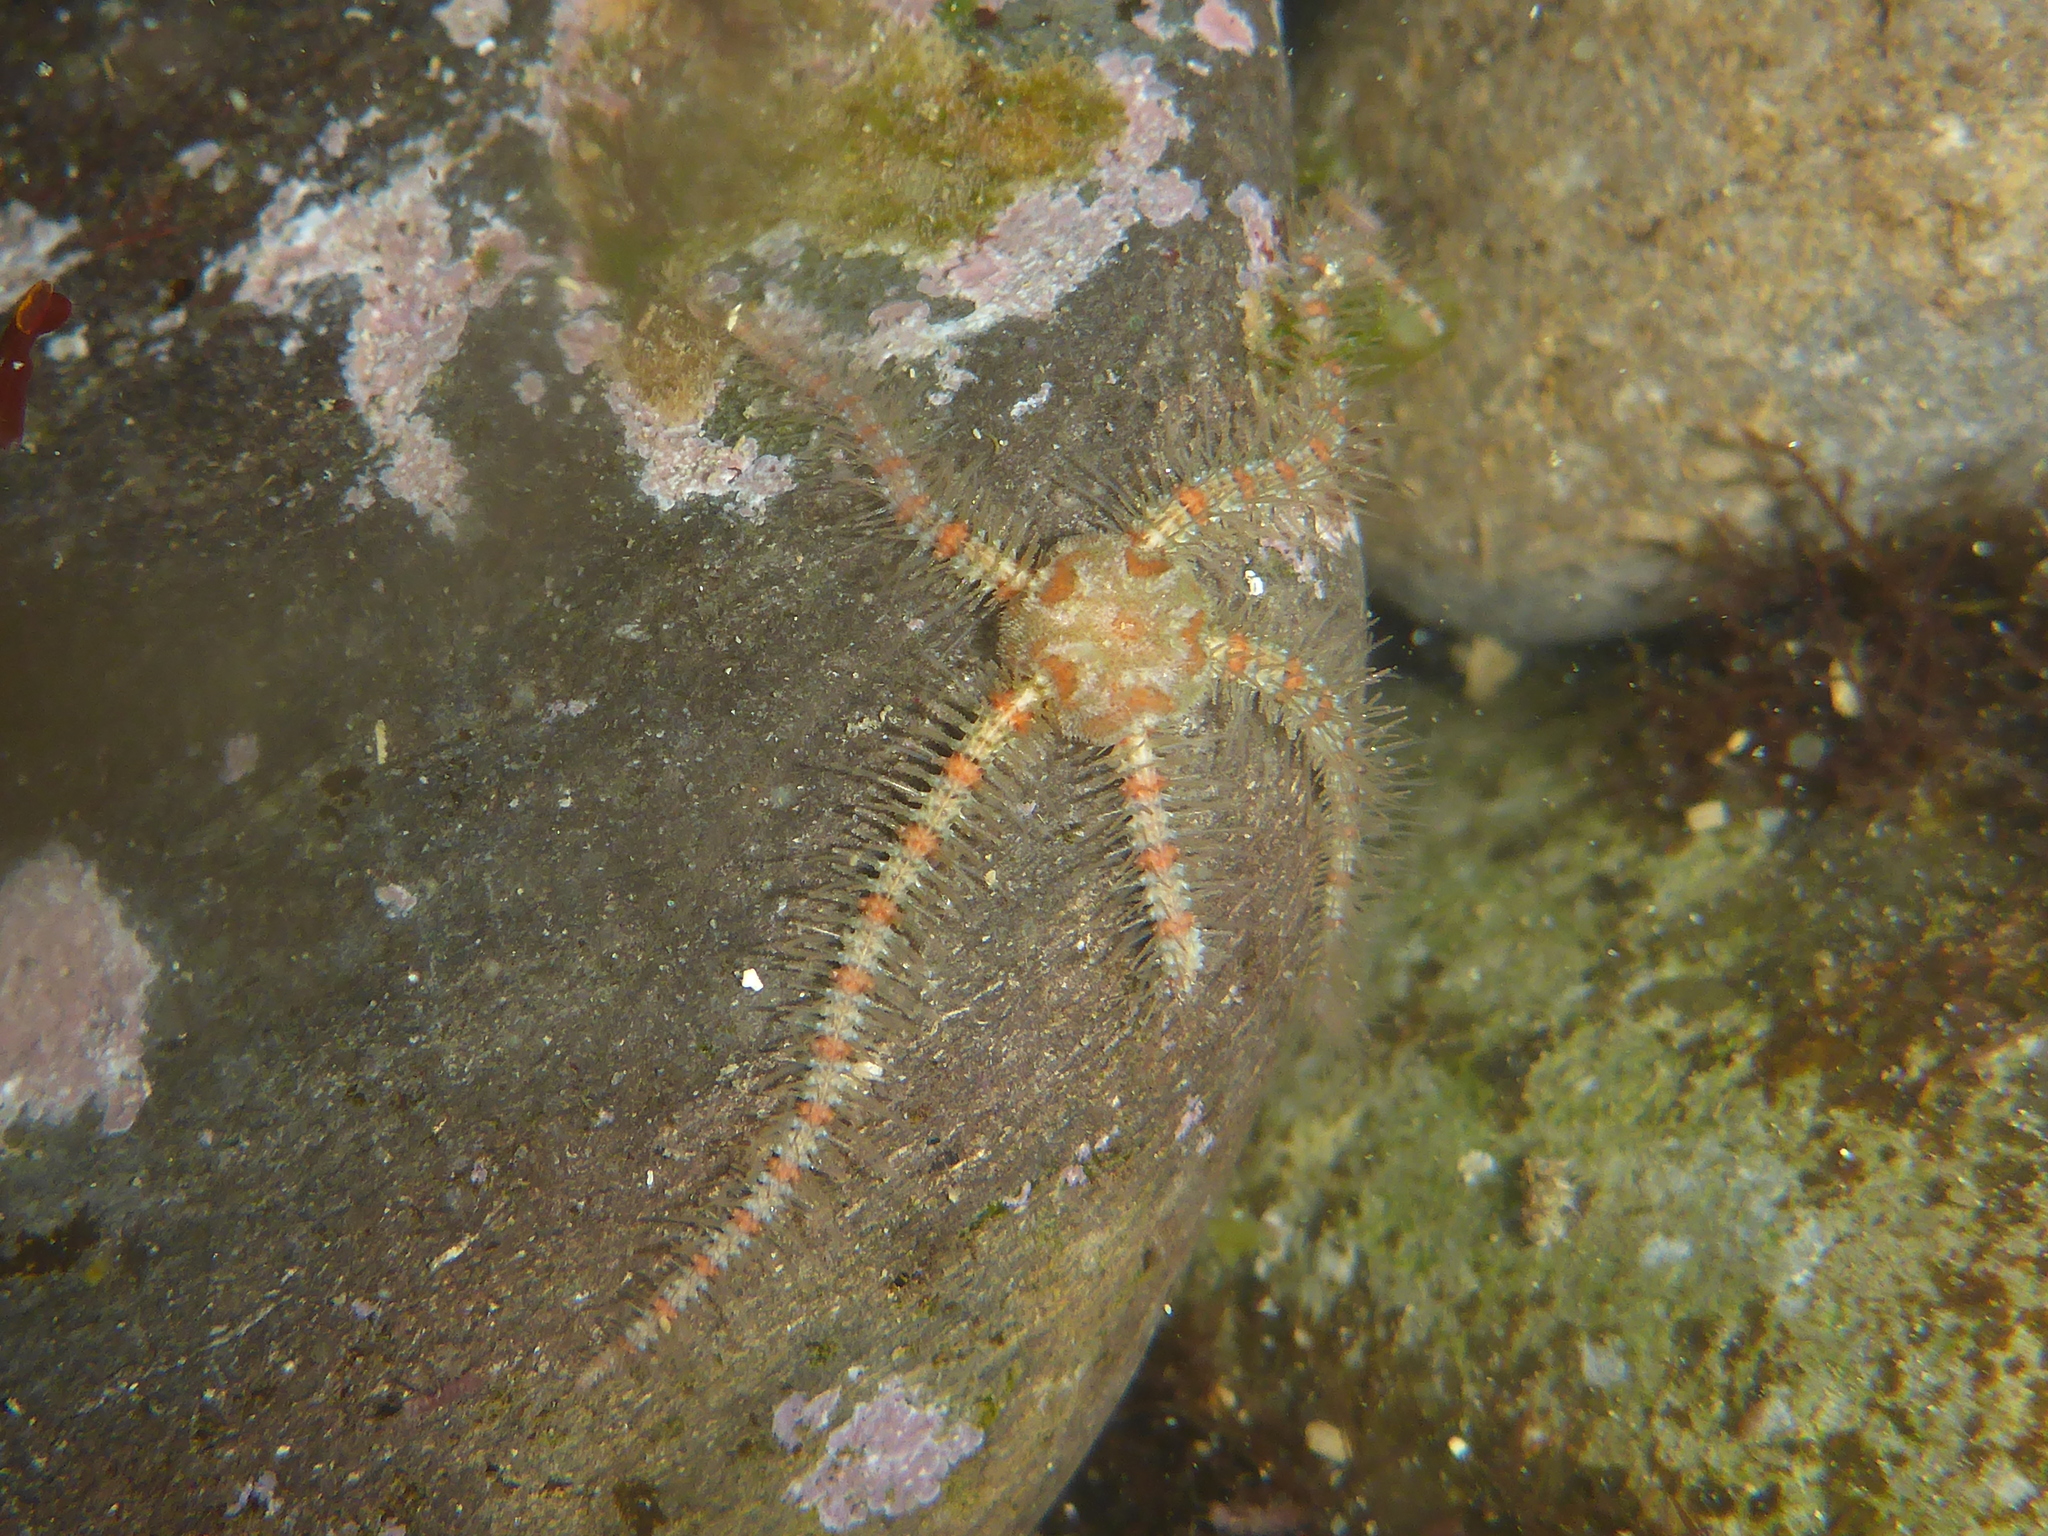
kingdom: Animalia
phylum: Echinodermata
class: Ophiuroidea
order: Amphilepidida
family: Ophiotrichidae
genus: Ophiothrix
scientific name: Ophiothrix spiculata
